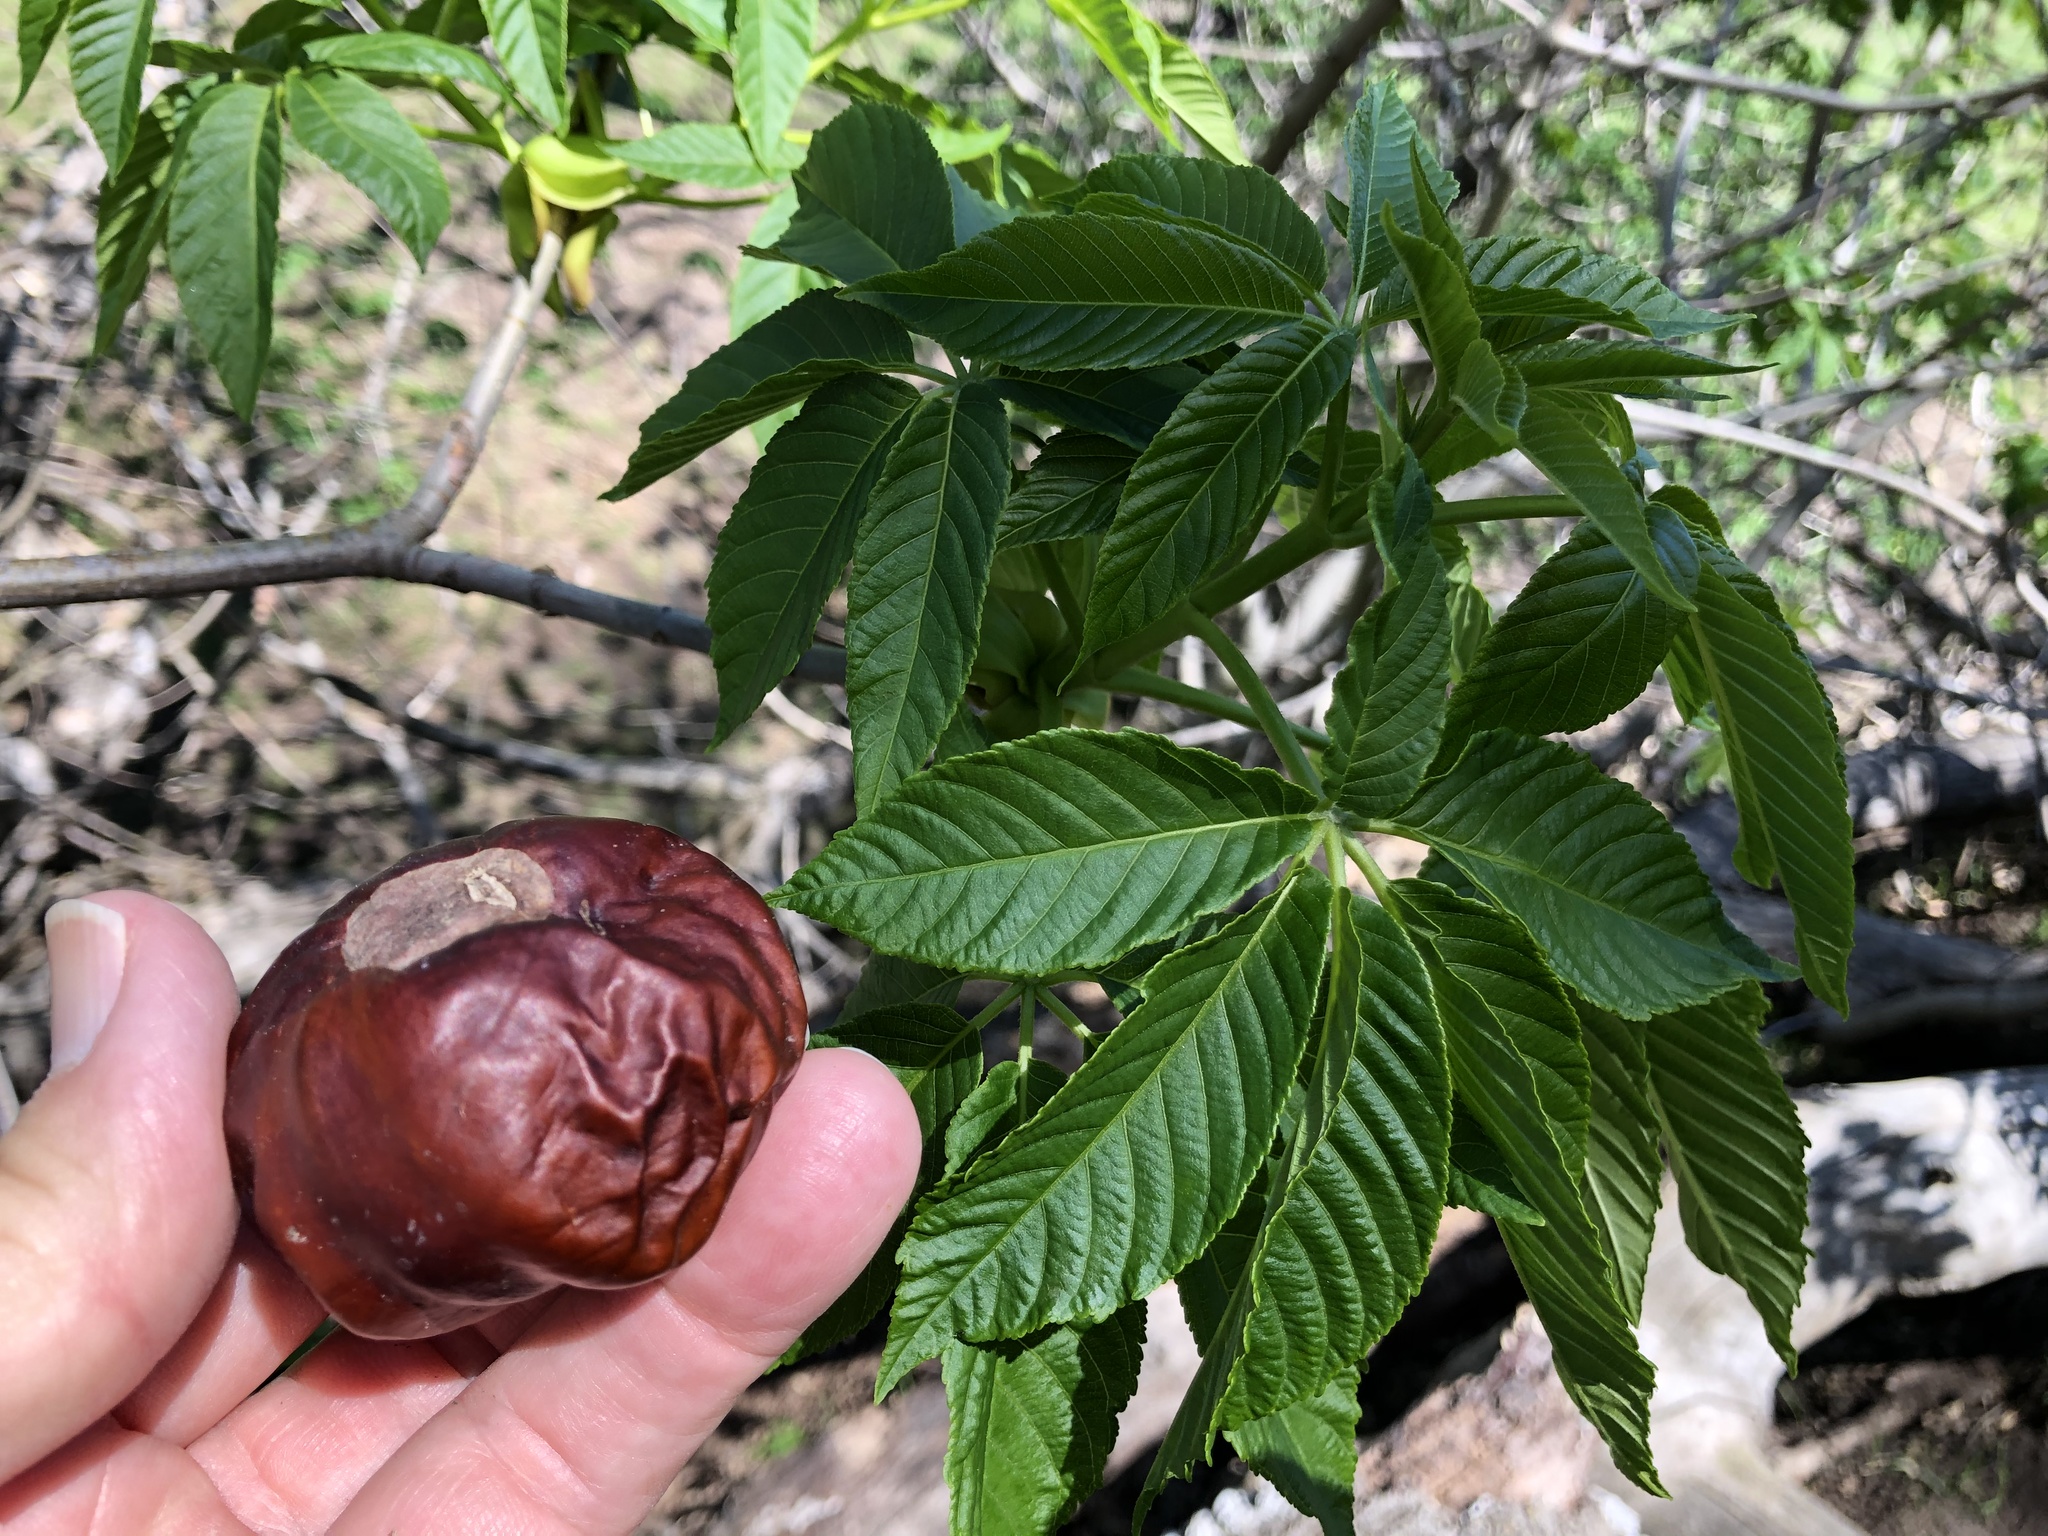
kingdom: Plantae
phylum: Tracheophyta
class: Magnoliopsida
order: Sapindales
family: Sapindaceae
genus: Aesculus
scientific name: Aesculus californica
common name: California buckeye
